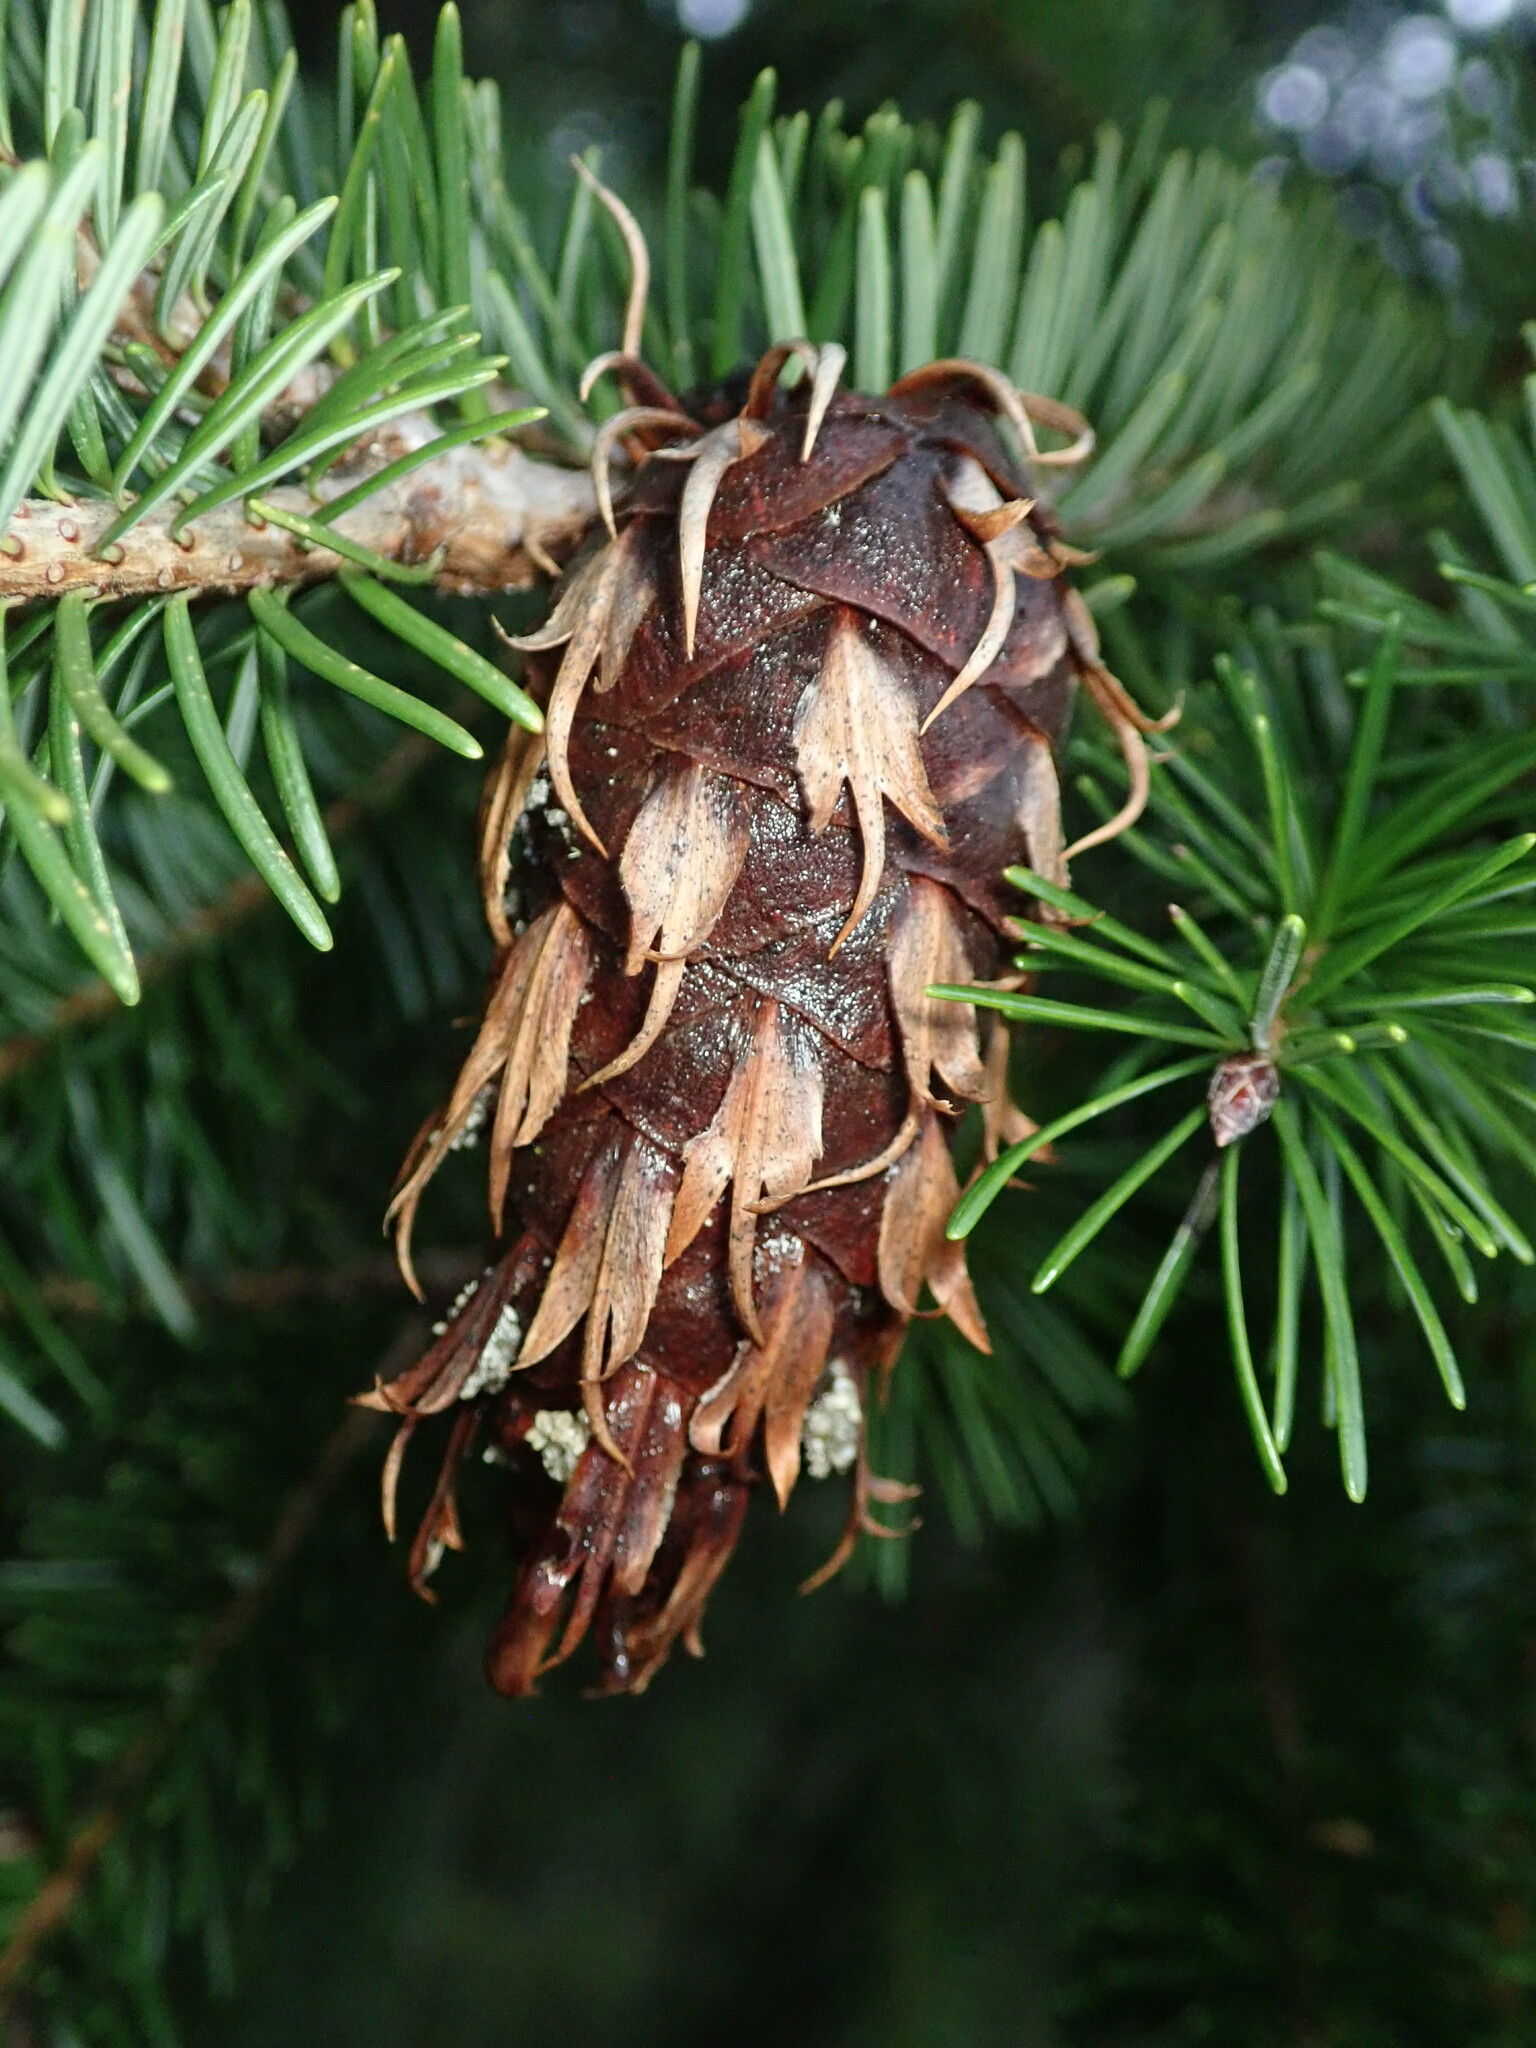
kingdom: Plantae
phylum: Tracheophyta
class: Pinopsida
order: Pinales
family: Pinaceae
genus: Pseudotsuga
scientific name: Pseudotsuga menziesii
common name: Douglas fir
